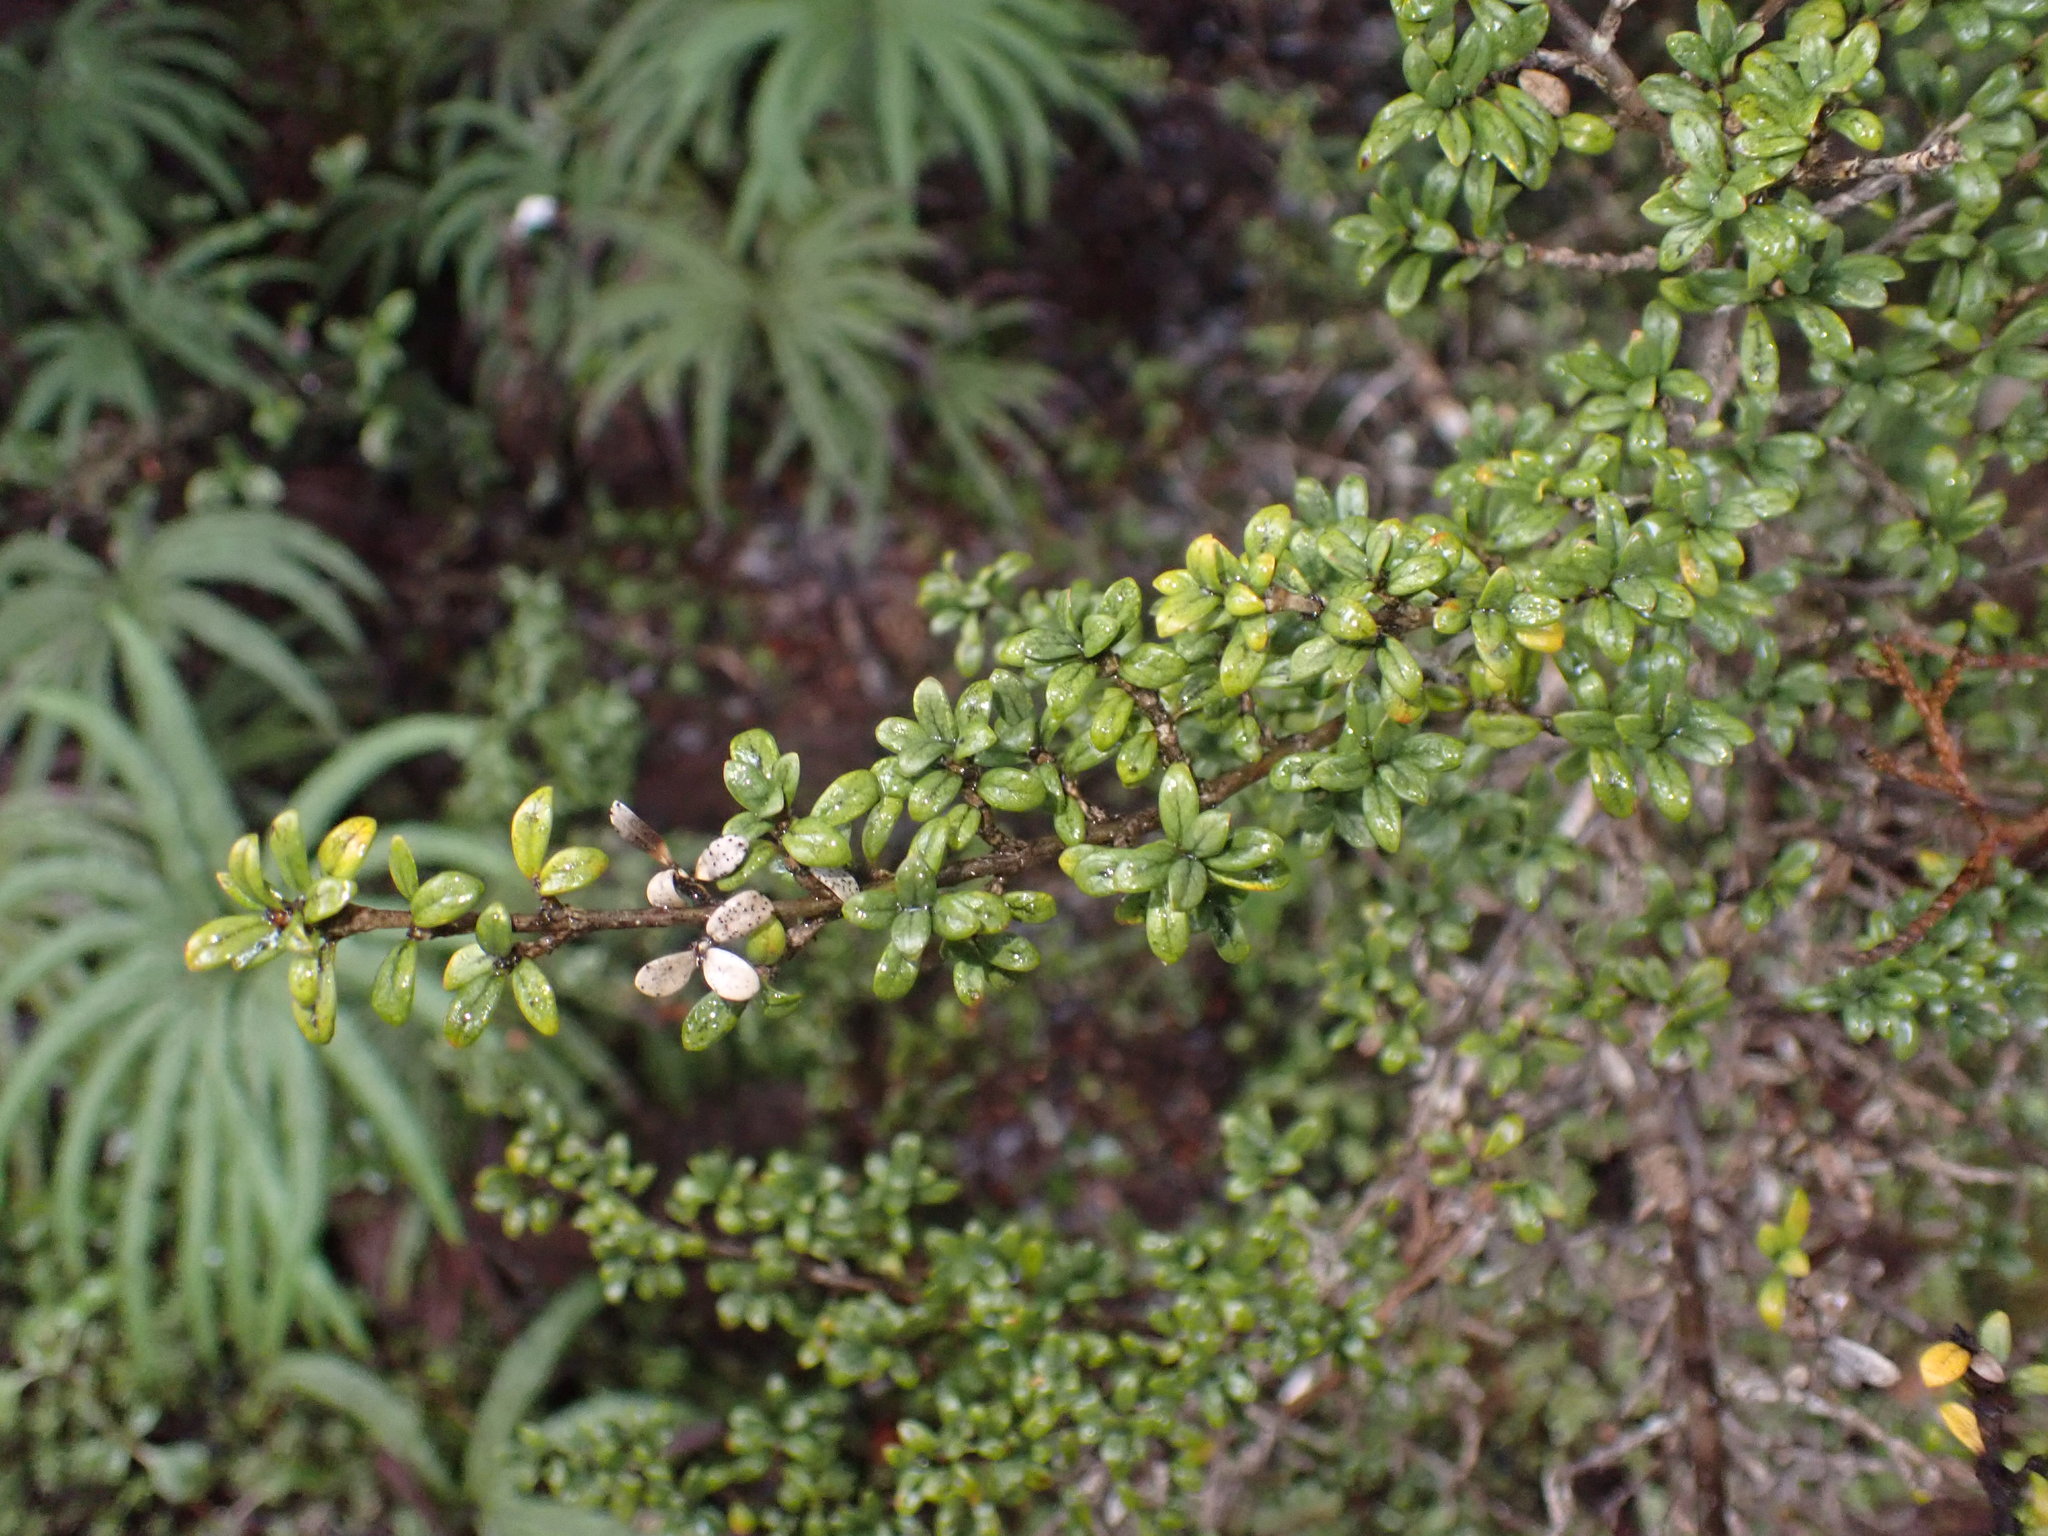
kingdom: Plantae
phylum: Tracheophyta
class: Magnoliopsida
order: Gentianales
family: Rubiaceae
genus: Coprosma
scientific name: Coprosma pseudocuneata
